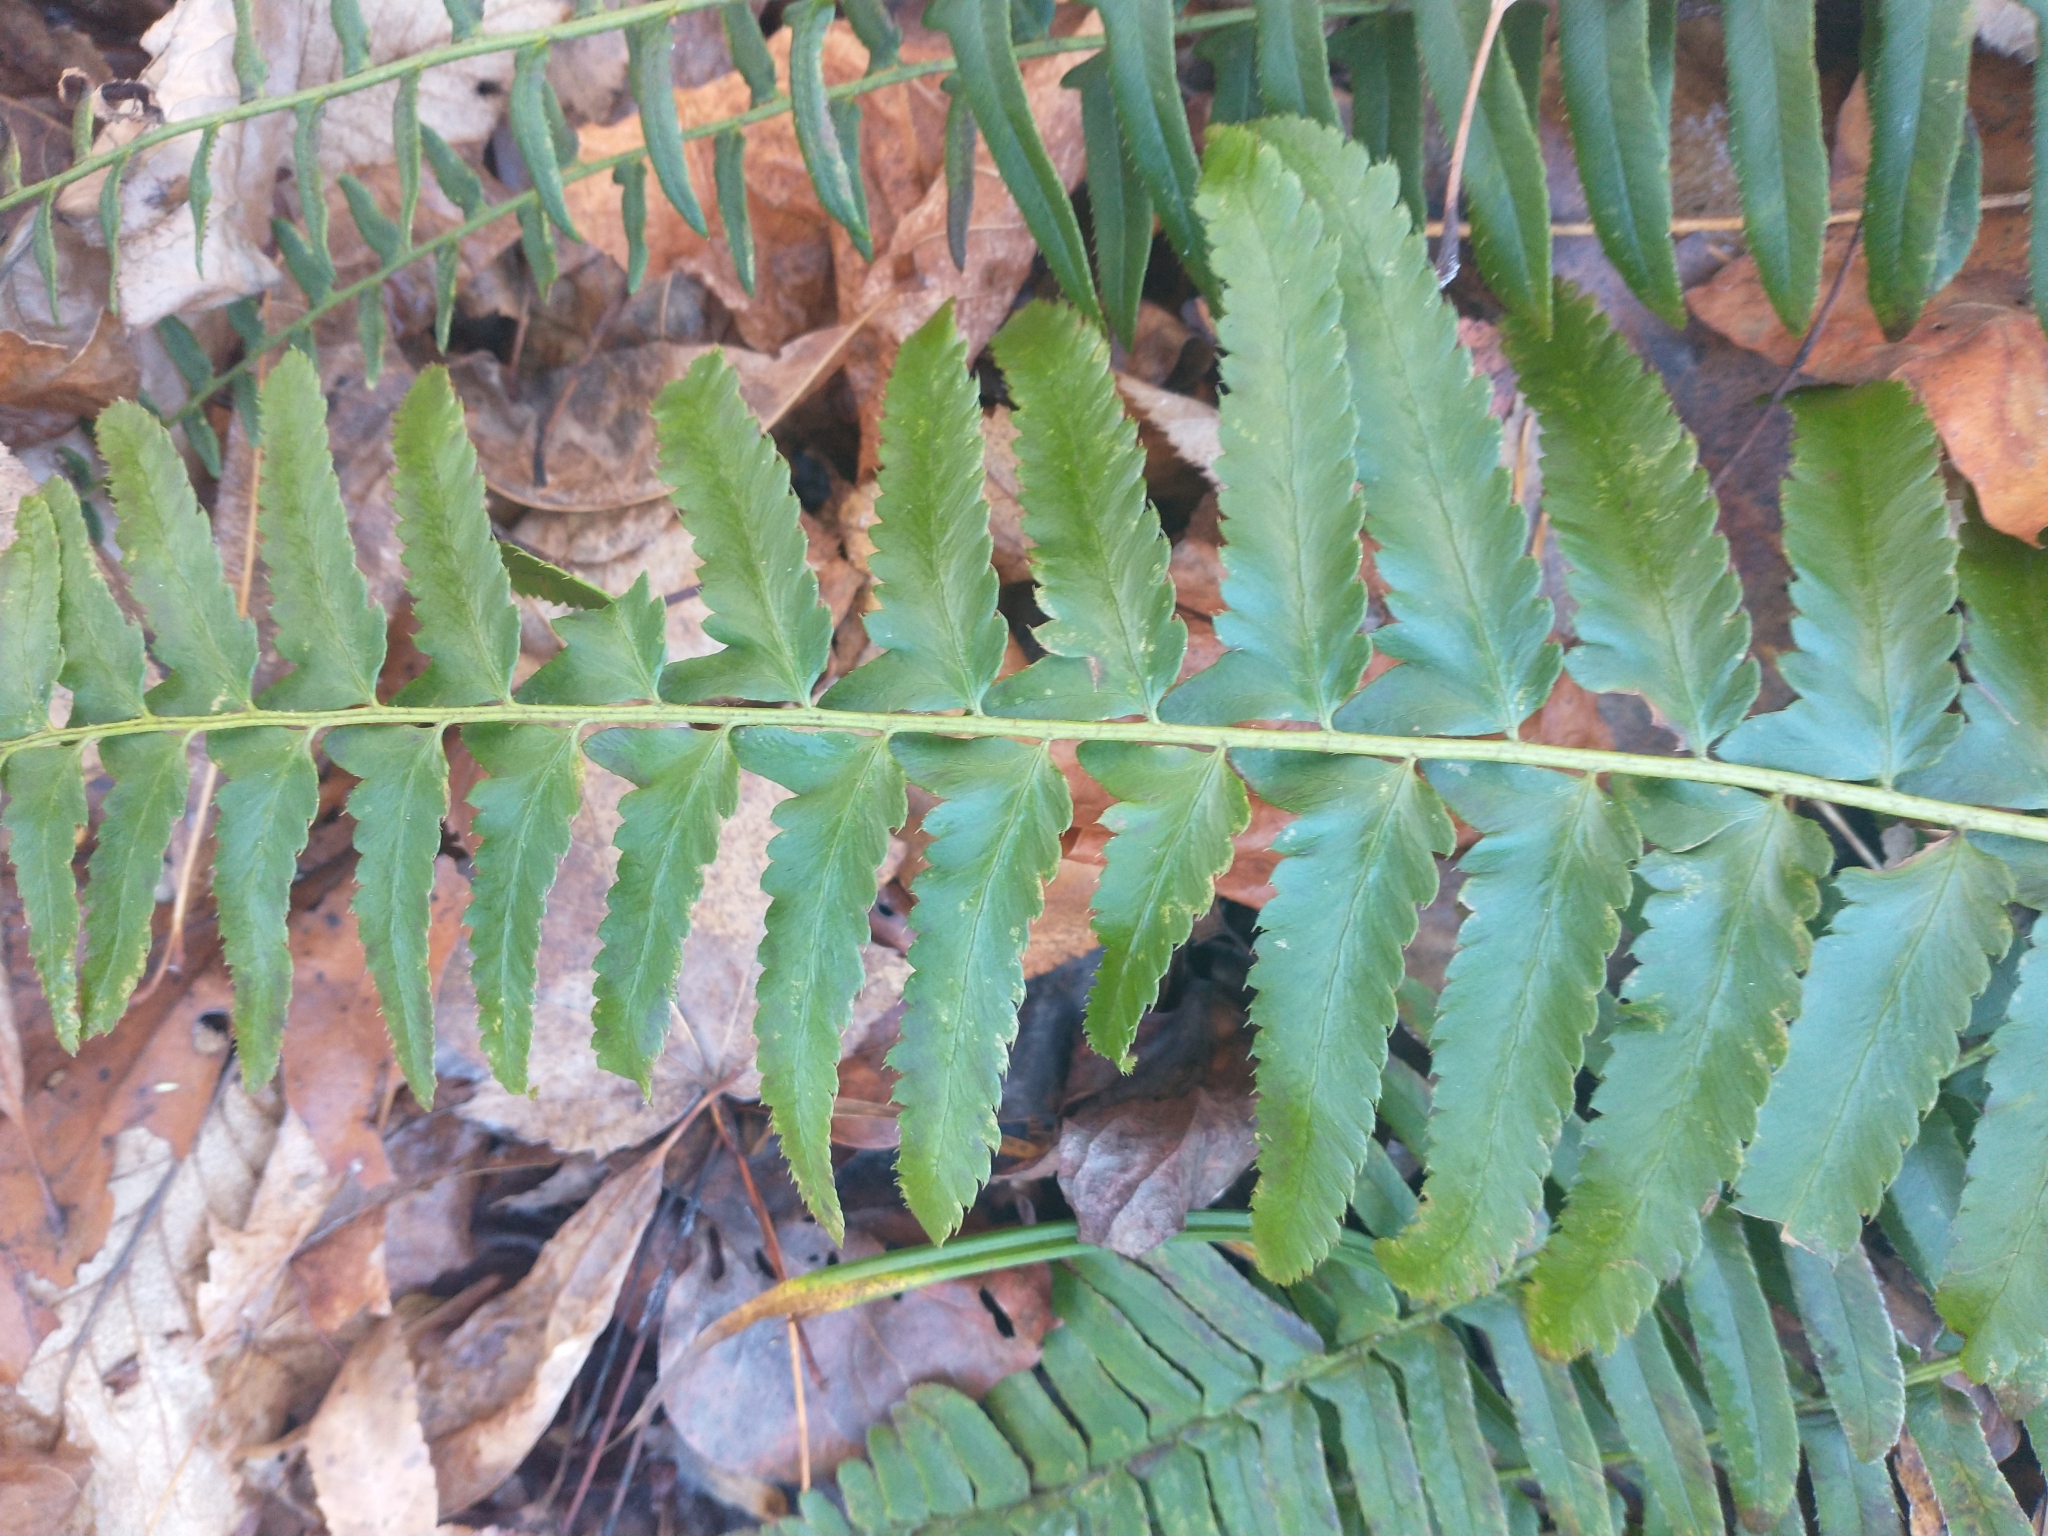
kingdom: Plantae
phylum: Tracheophyta
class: Polypodiopsida
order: Polypodiales
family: Dryopteridaceae
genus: Polystichum
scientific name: Polystichum acrostichoides
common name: Christmas fern
